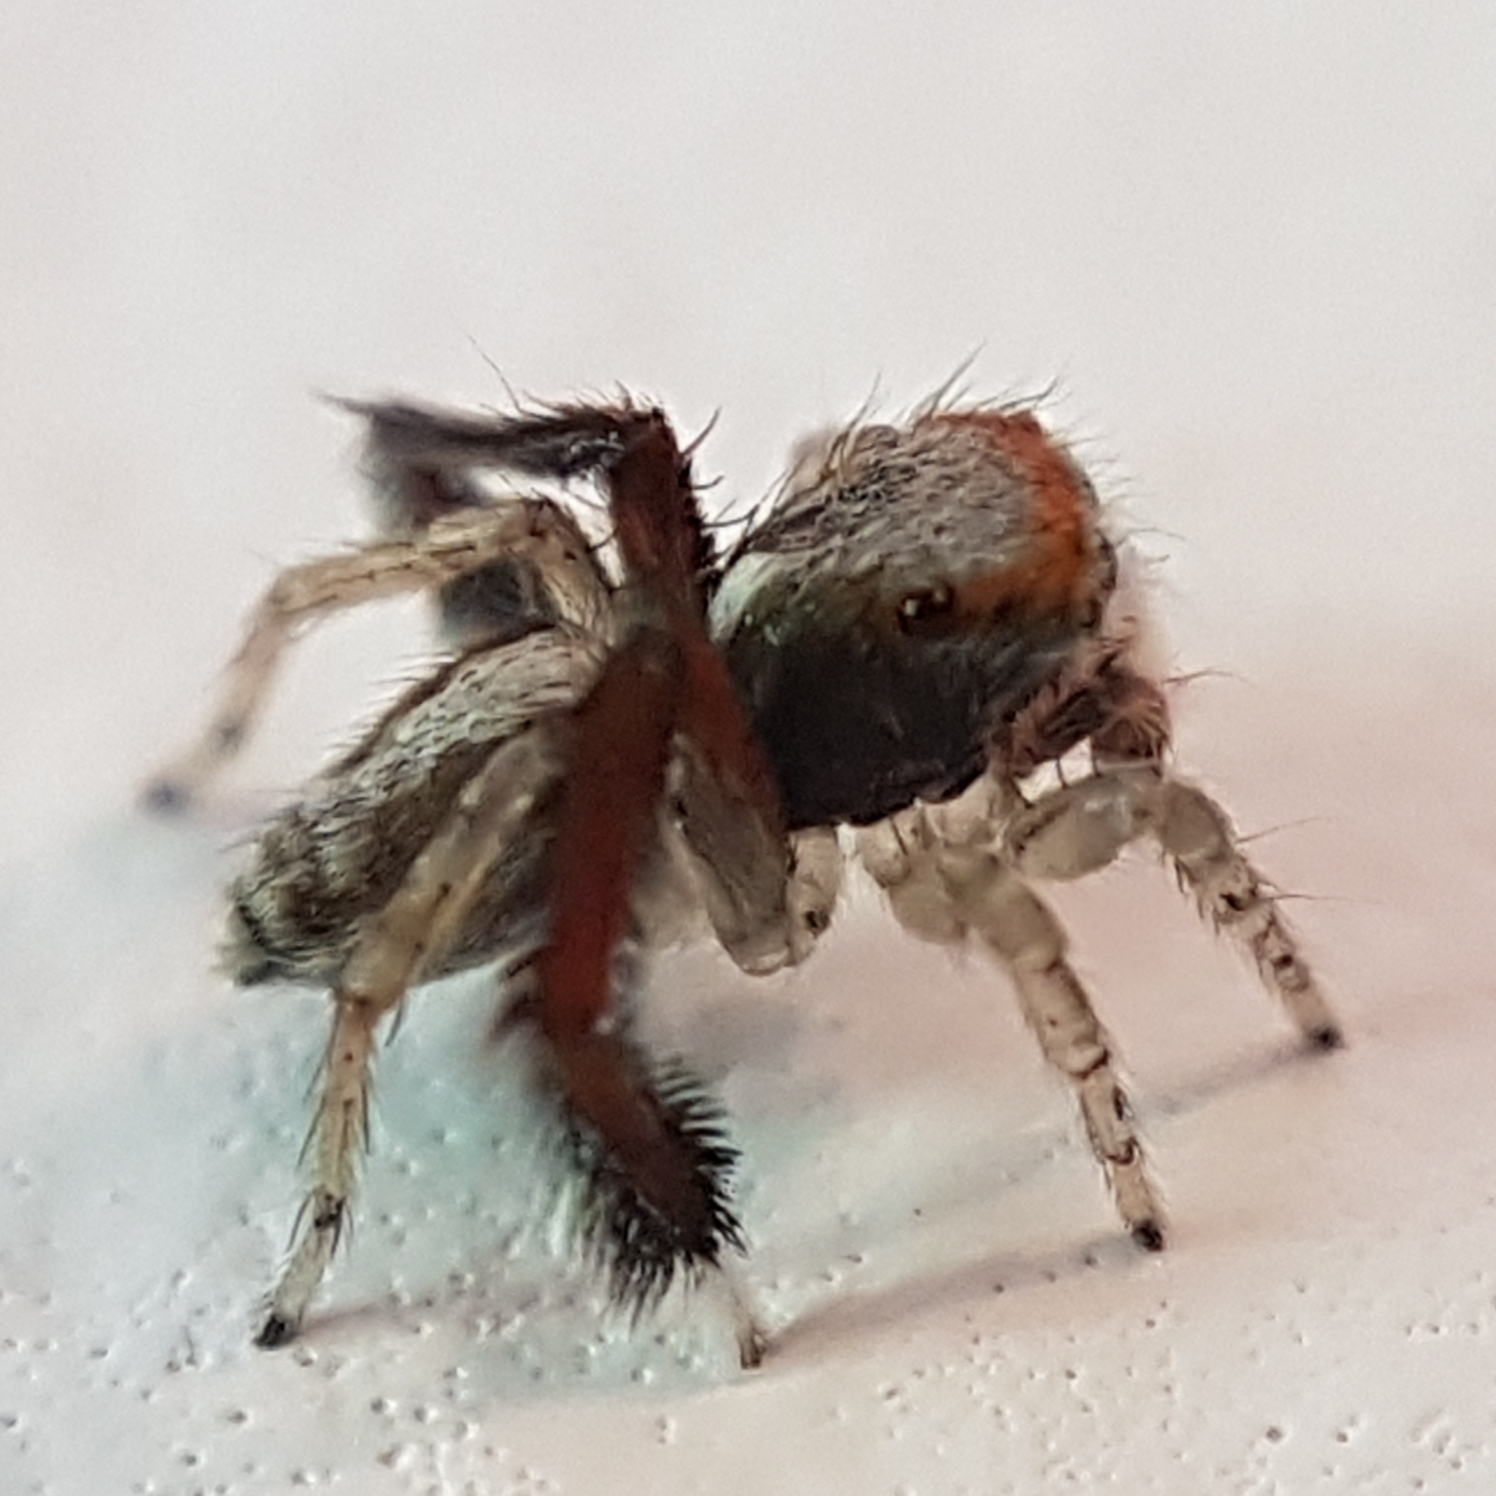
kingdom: Animalia
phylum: Arthropoda
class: Arachnida
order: Araneae
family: Salticidae
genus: Saitis
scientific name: Saitis barbipes
